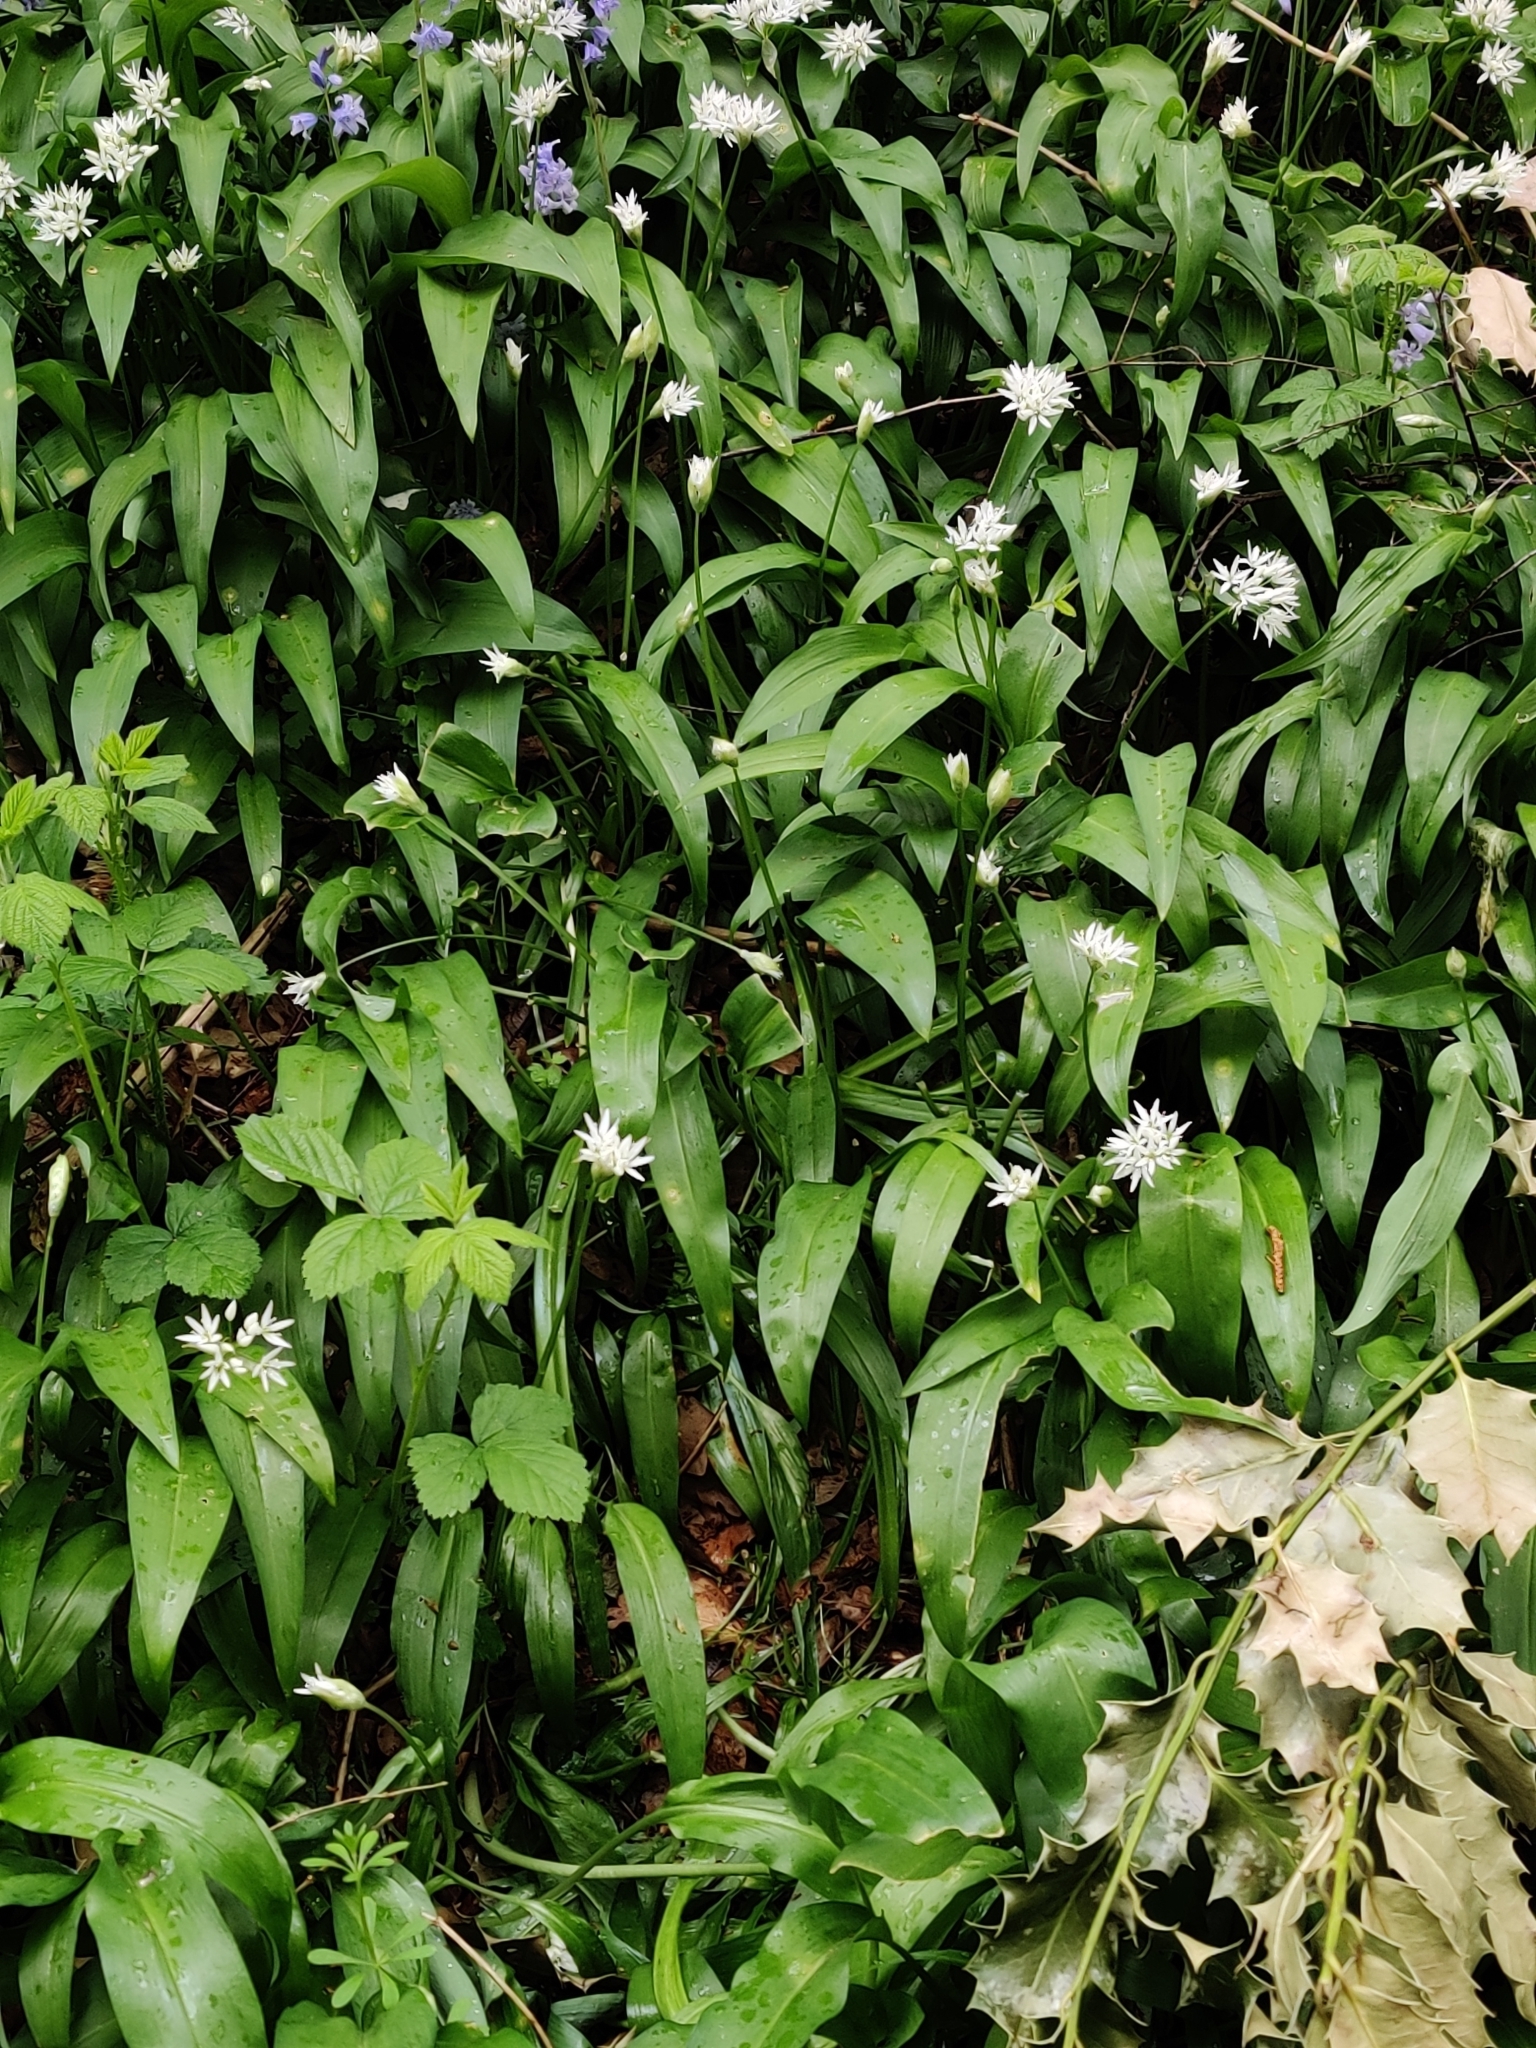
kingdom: Plantae
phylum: Tracheophyta
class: Liliopsida
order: Asparagales
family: Amaryllidaceae
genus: Allium
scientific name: Allium ursinum
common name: Ramsons
